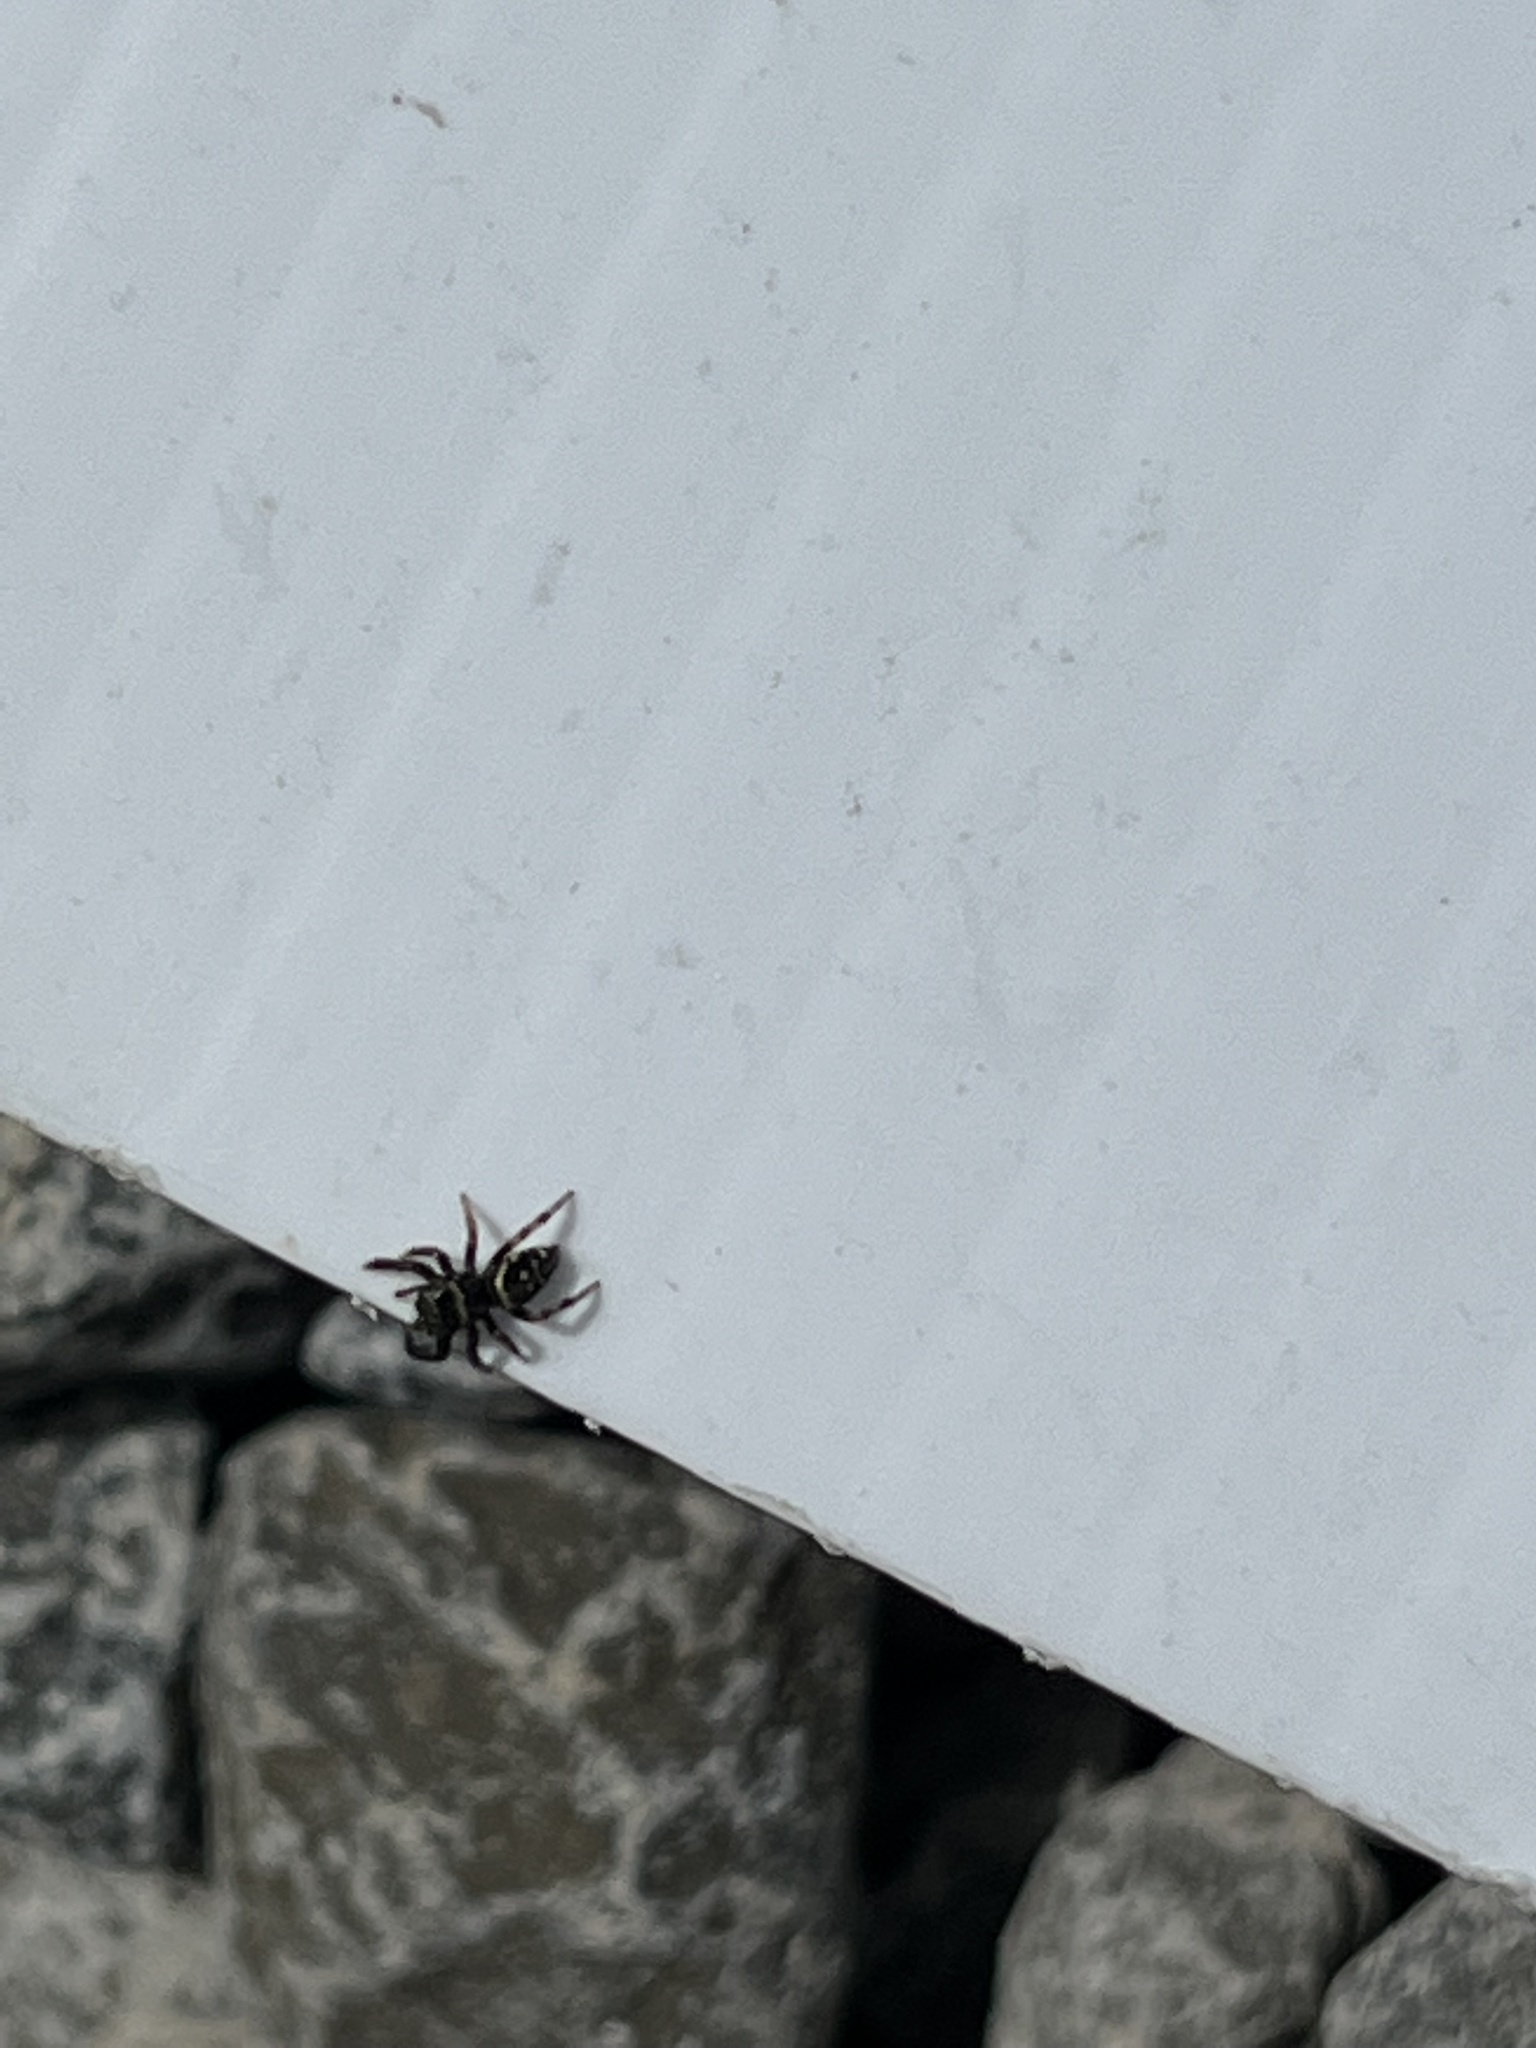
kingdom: Animalia
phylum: Arthropoda
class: Arachnida
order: Araneae
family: Salticidae
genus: Paraphidippus
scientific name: Paraphidippus aurantius
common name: Jumping spiders
